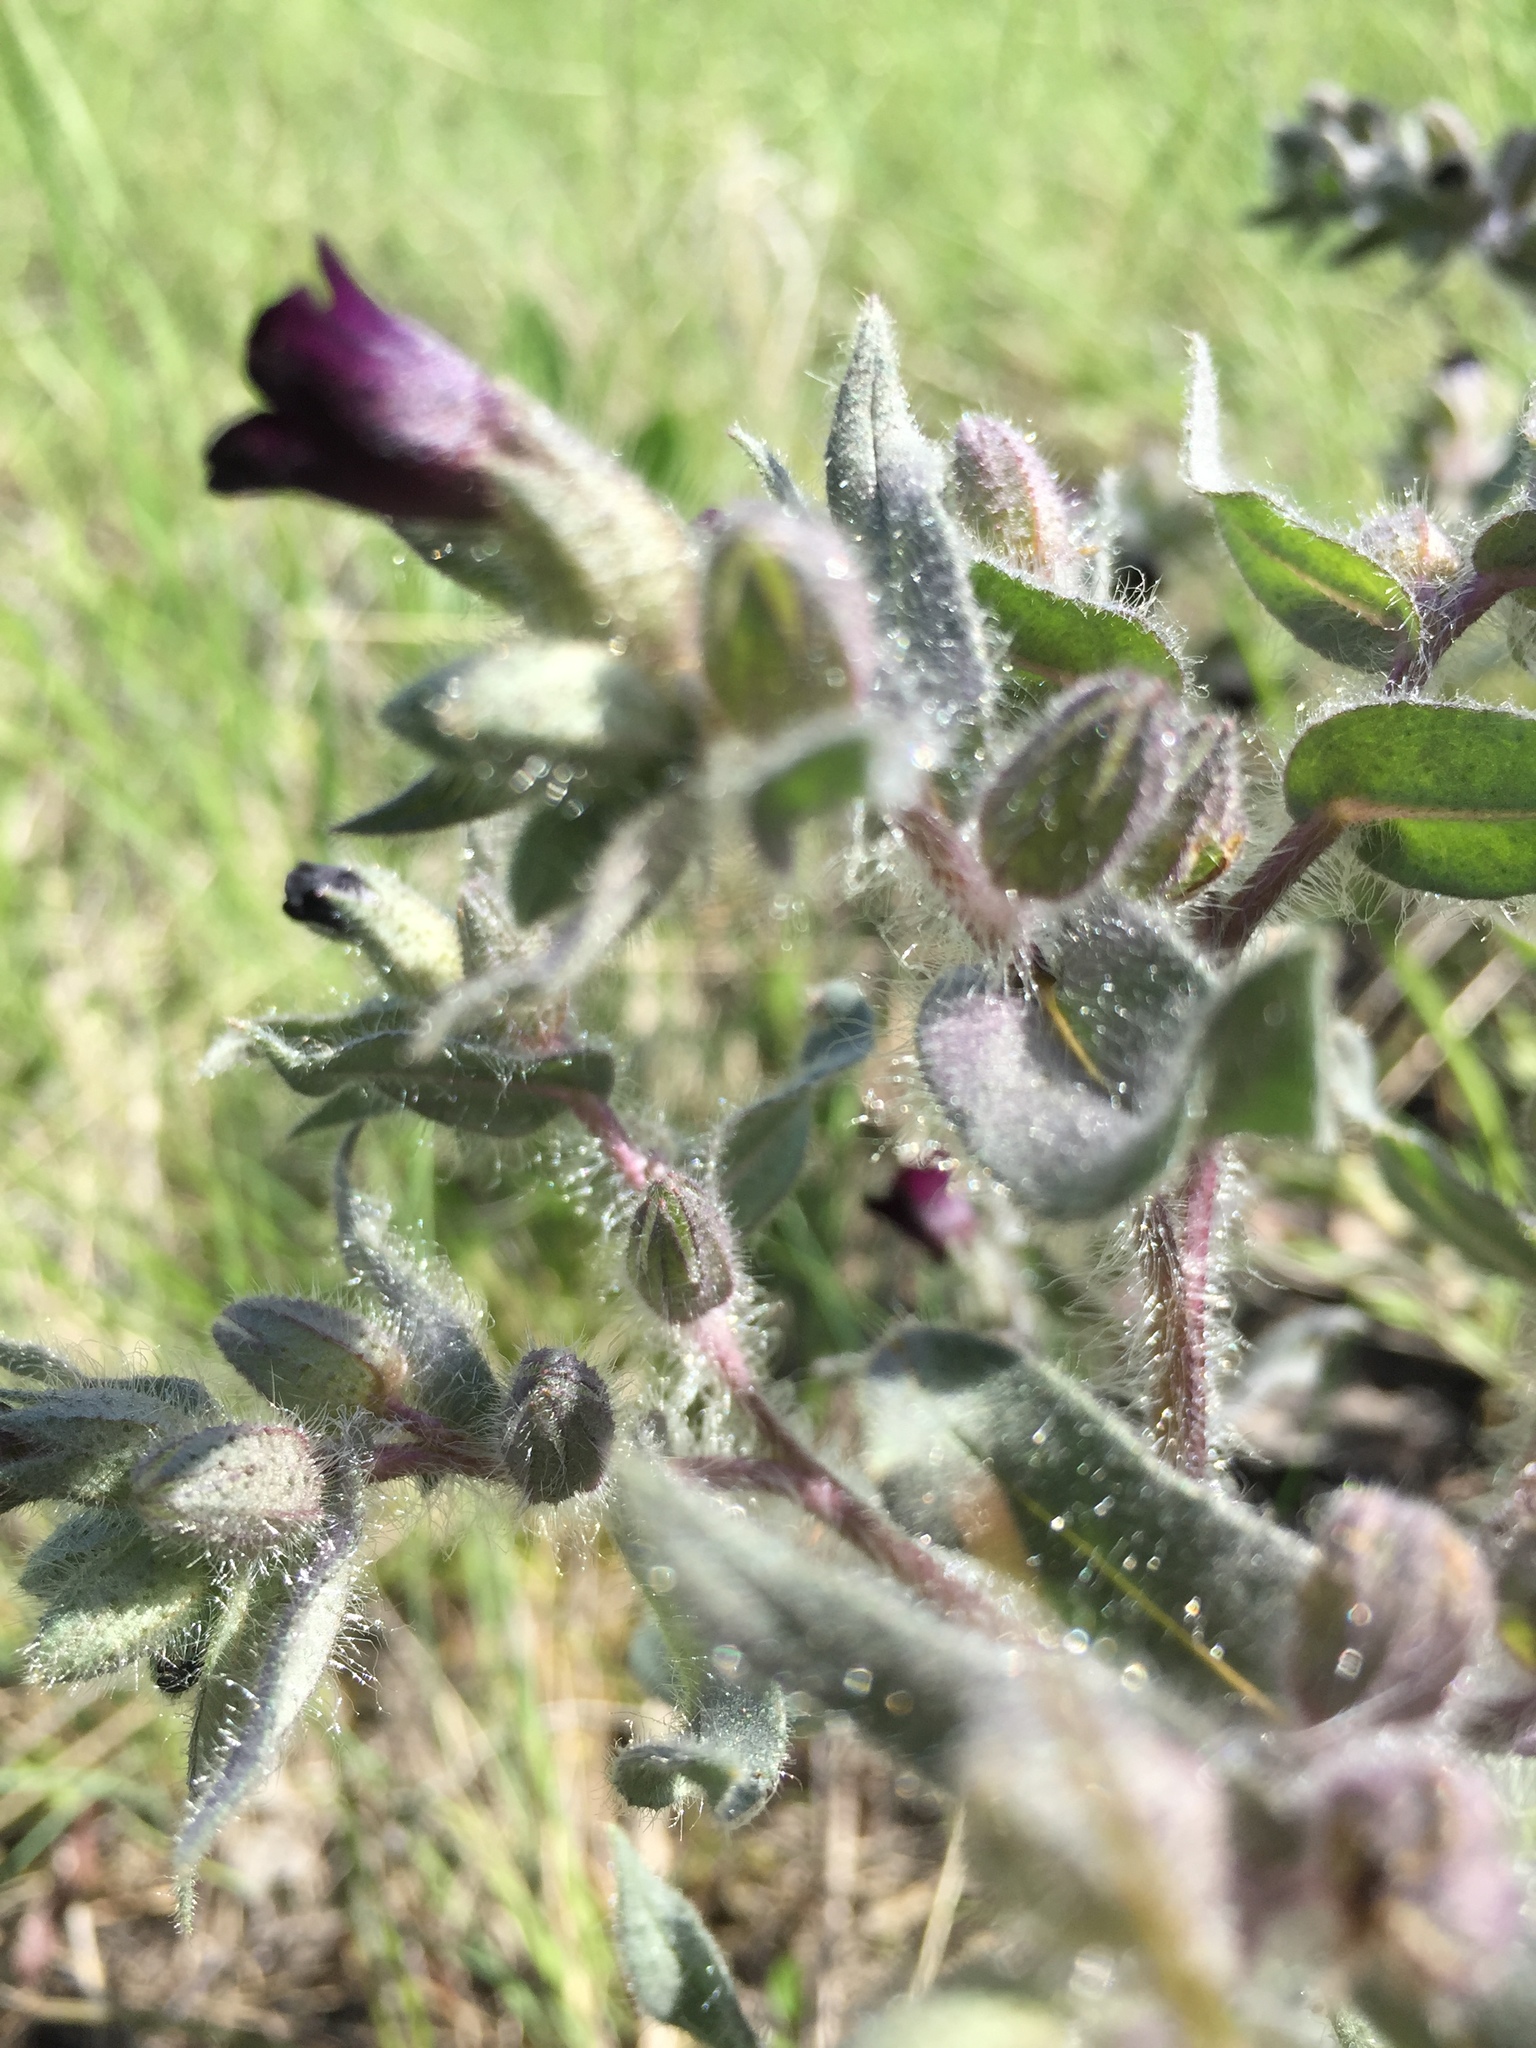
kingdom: Plantae
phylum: Tracheophyta
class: Magnoliopsida
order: Boraginales
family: Boraginaceae
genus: Nonea
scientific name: Nonea pulla
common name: Brown nonea
